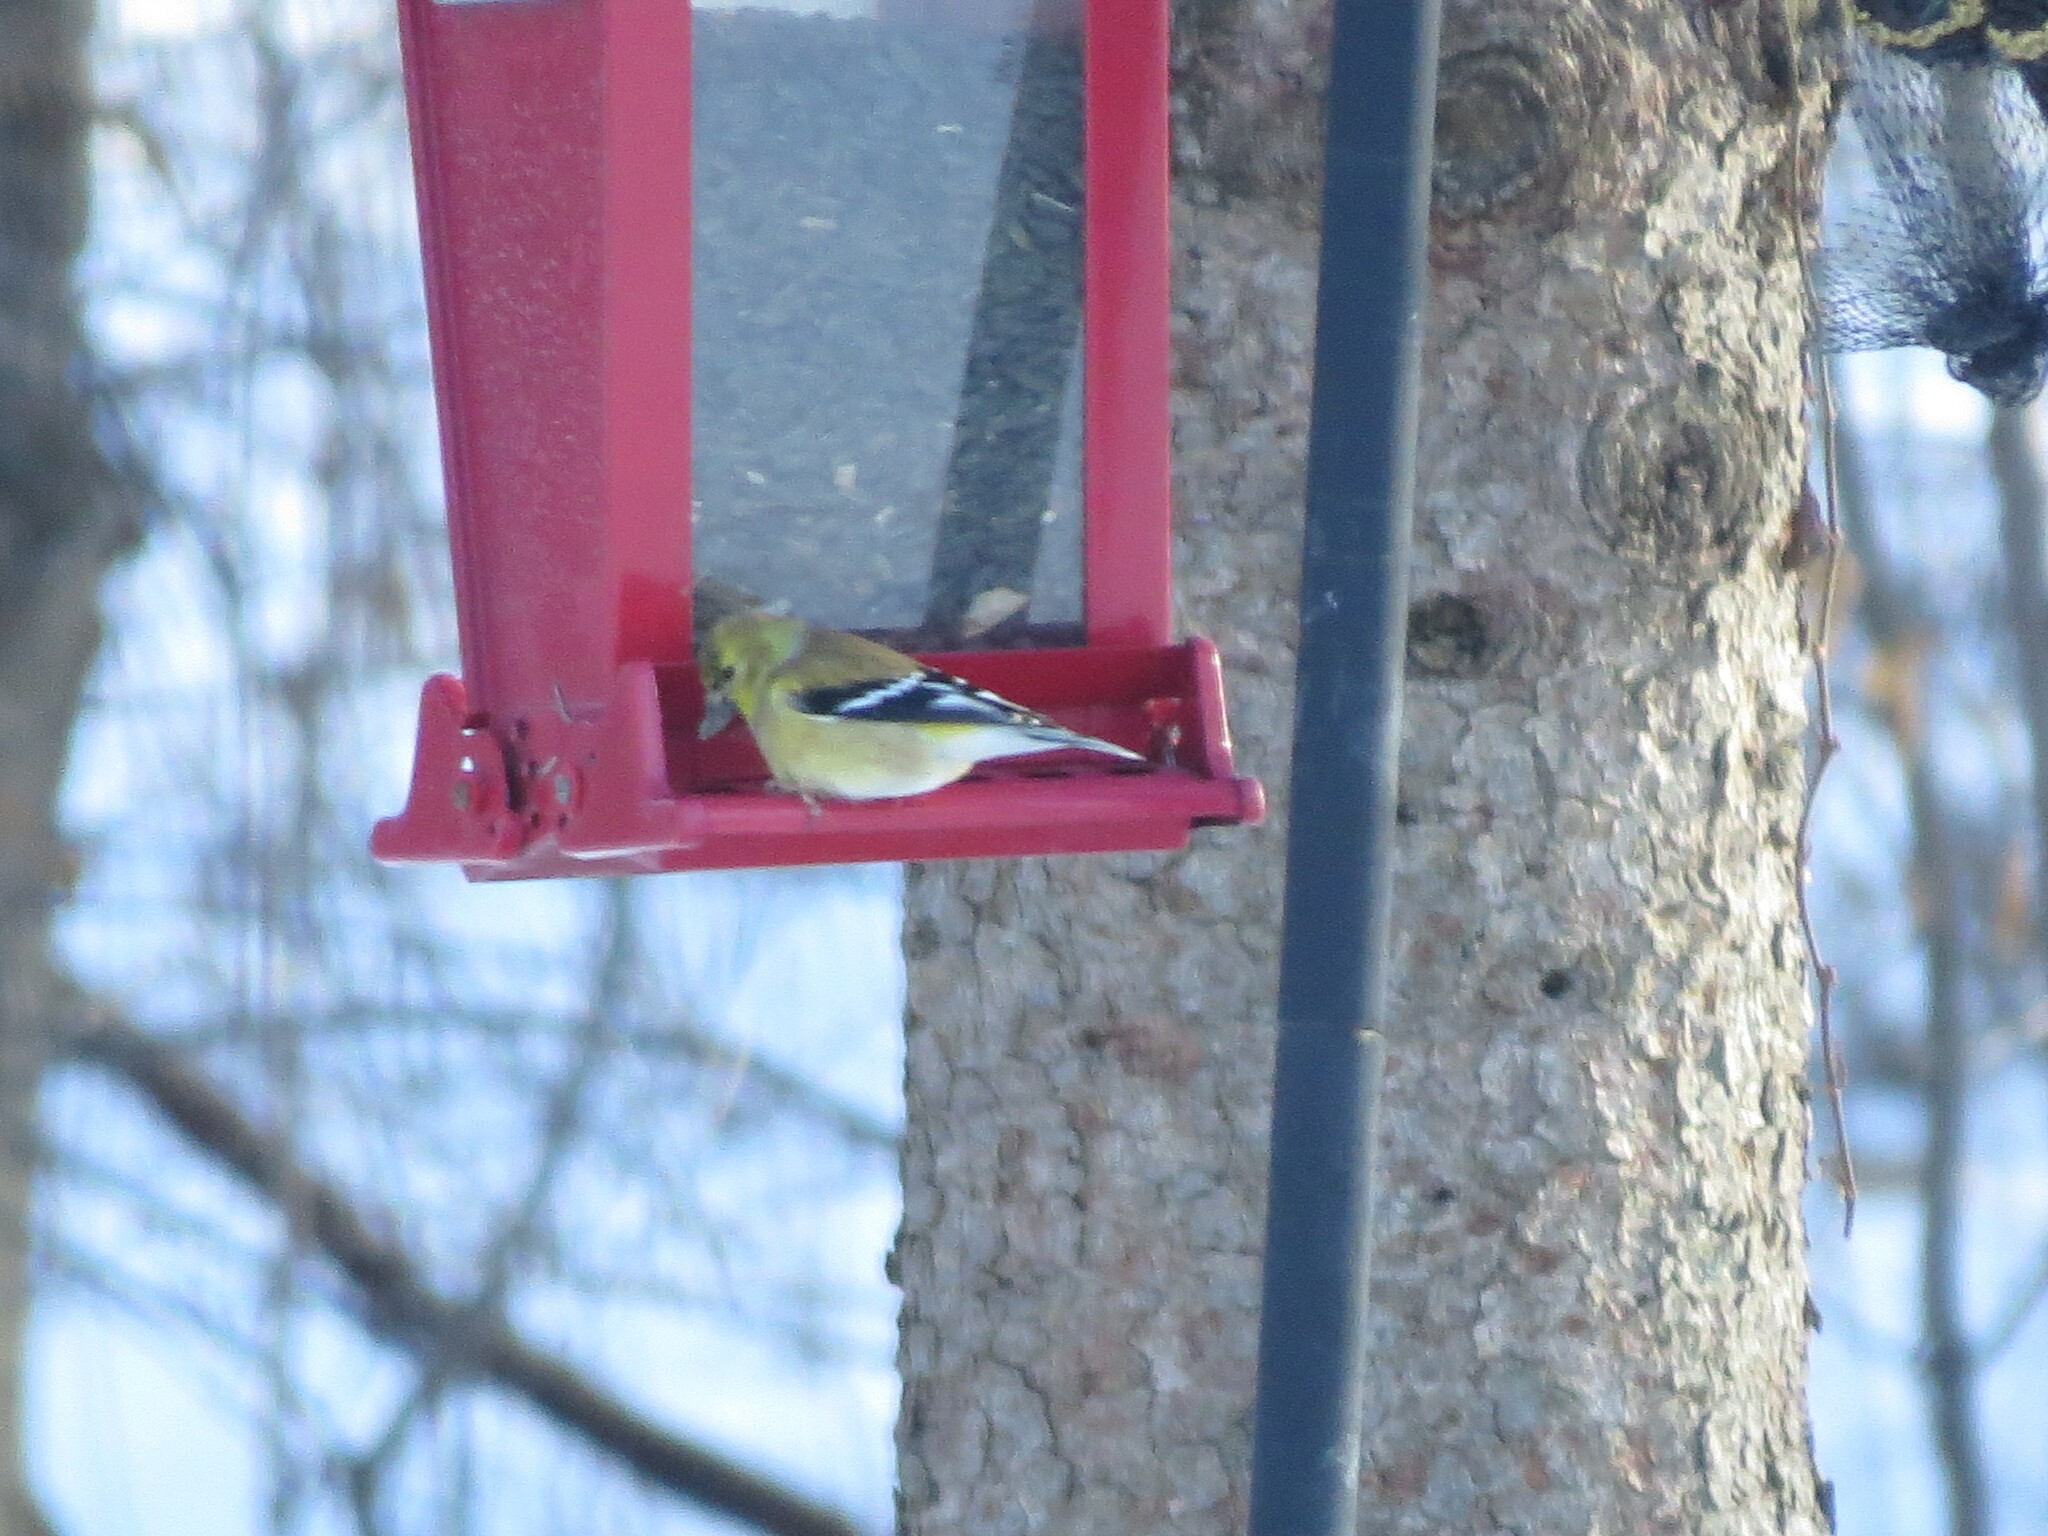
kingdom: Animalia
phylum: Chordata
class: Aves
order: Passeriformes
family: Fringillidae
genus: Spinus
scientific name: Spinus tristis
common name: American goldfinch
